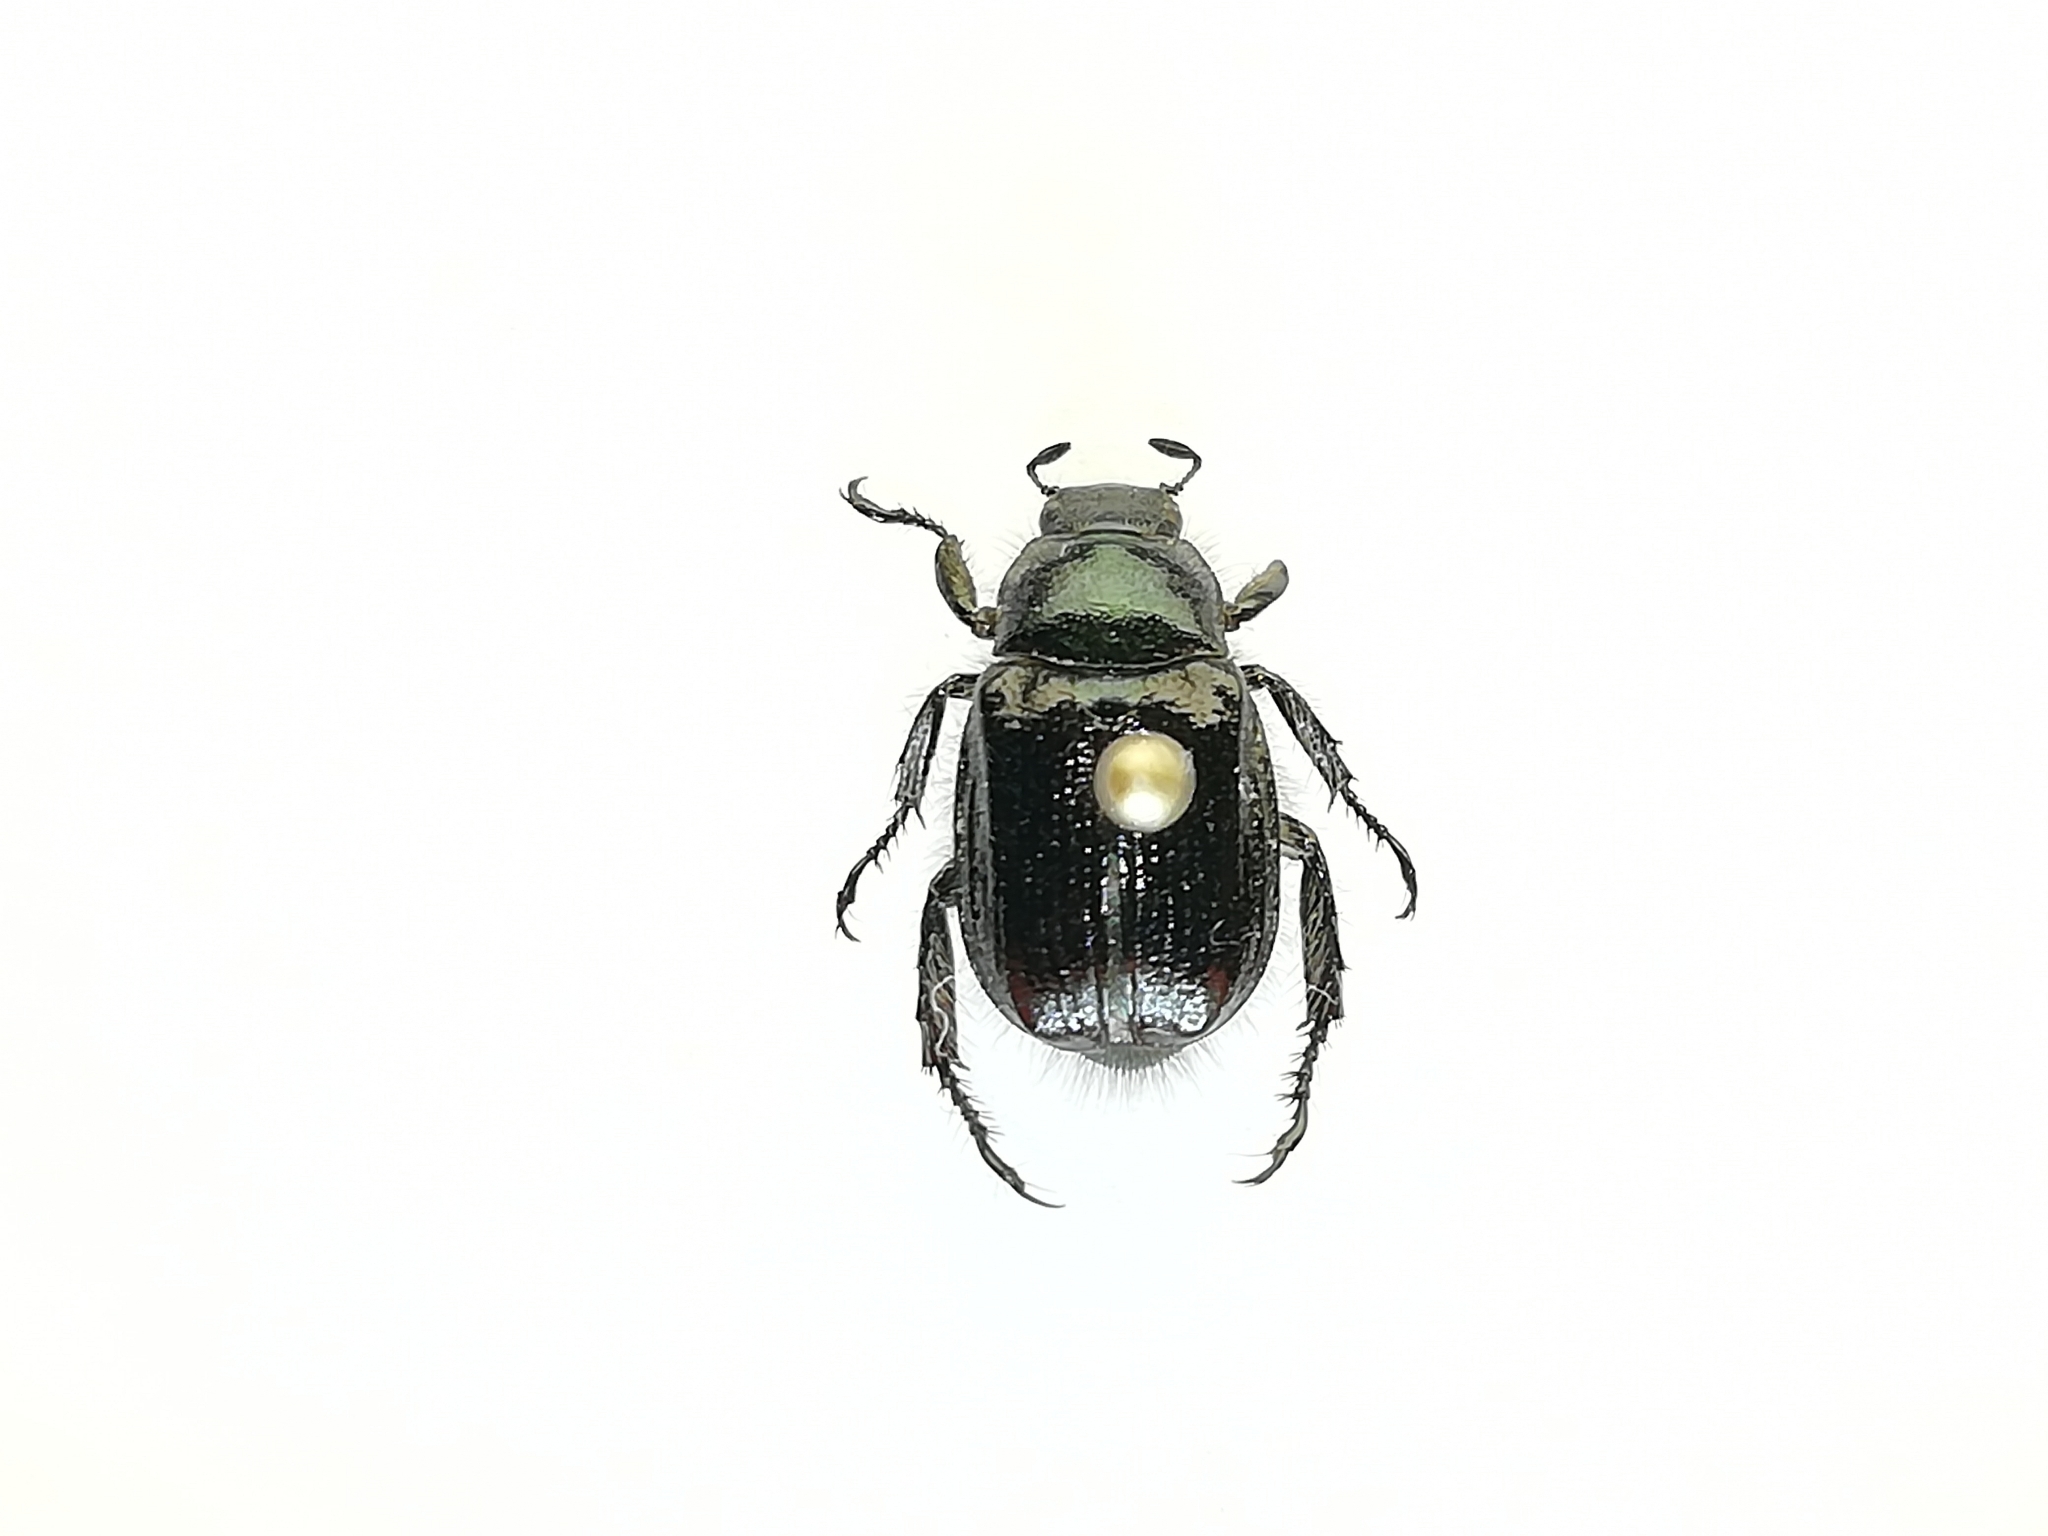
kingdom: Animalia
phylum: Arthropoda
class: Insecta
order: Coleoptera
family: Scarabaeidae
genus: Phyllopertha
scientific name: Phyllopertha horticola
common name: Garden chafer
